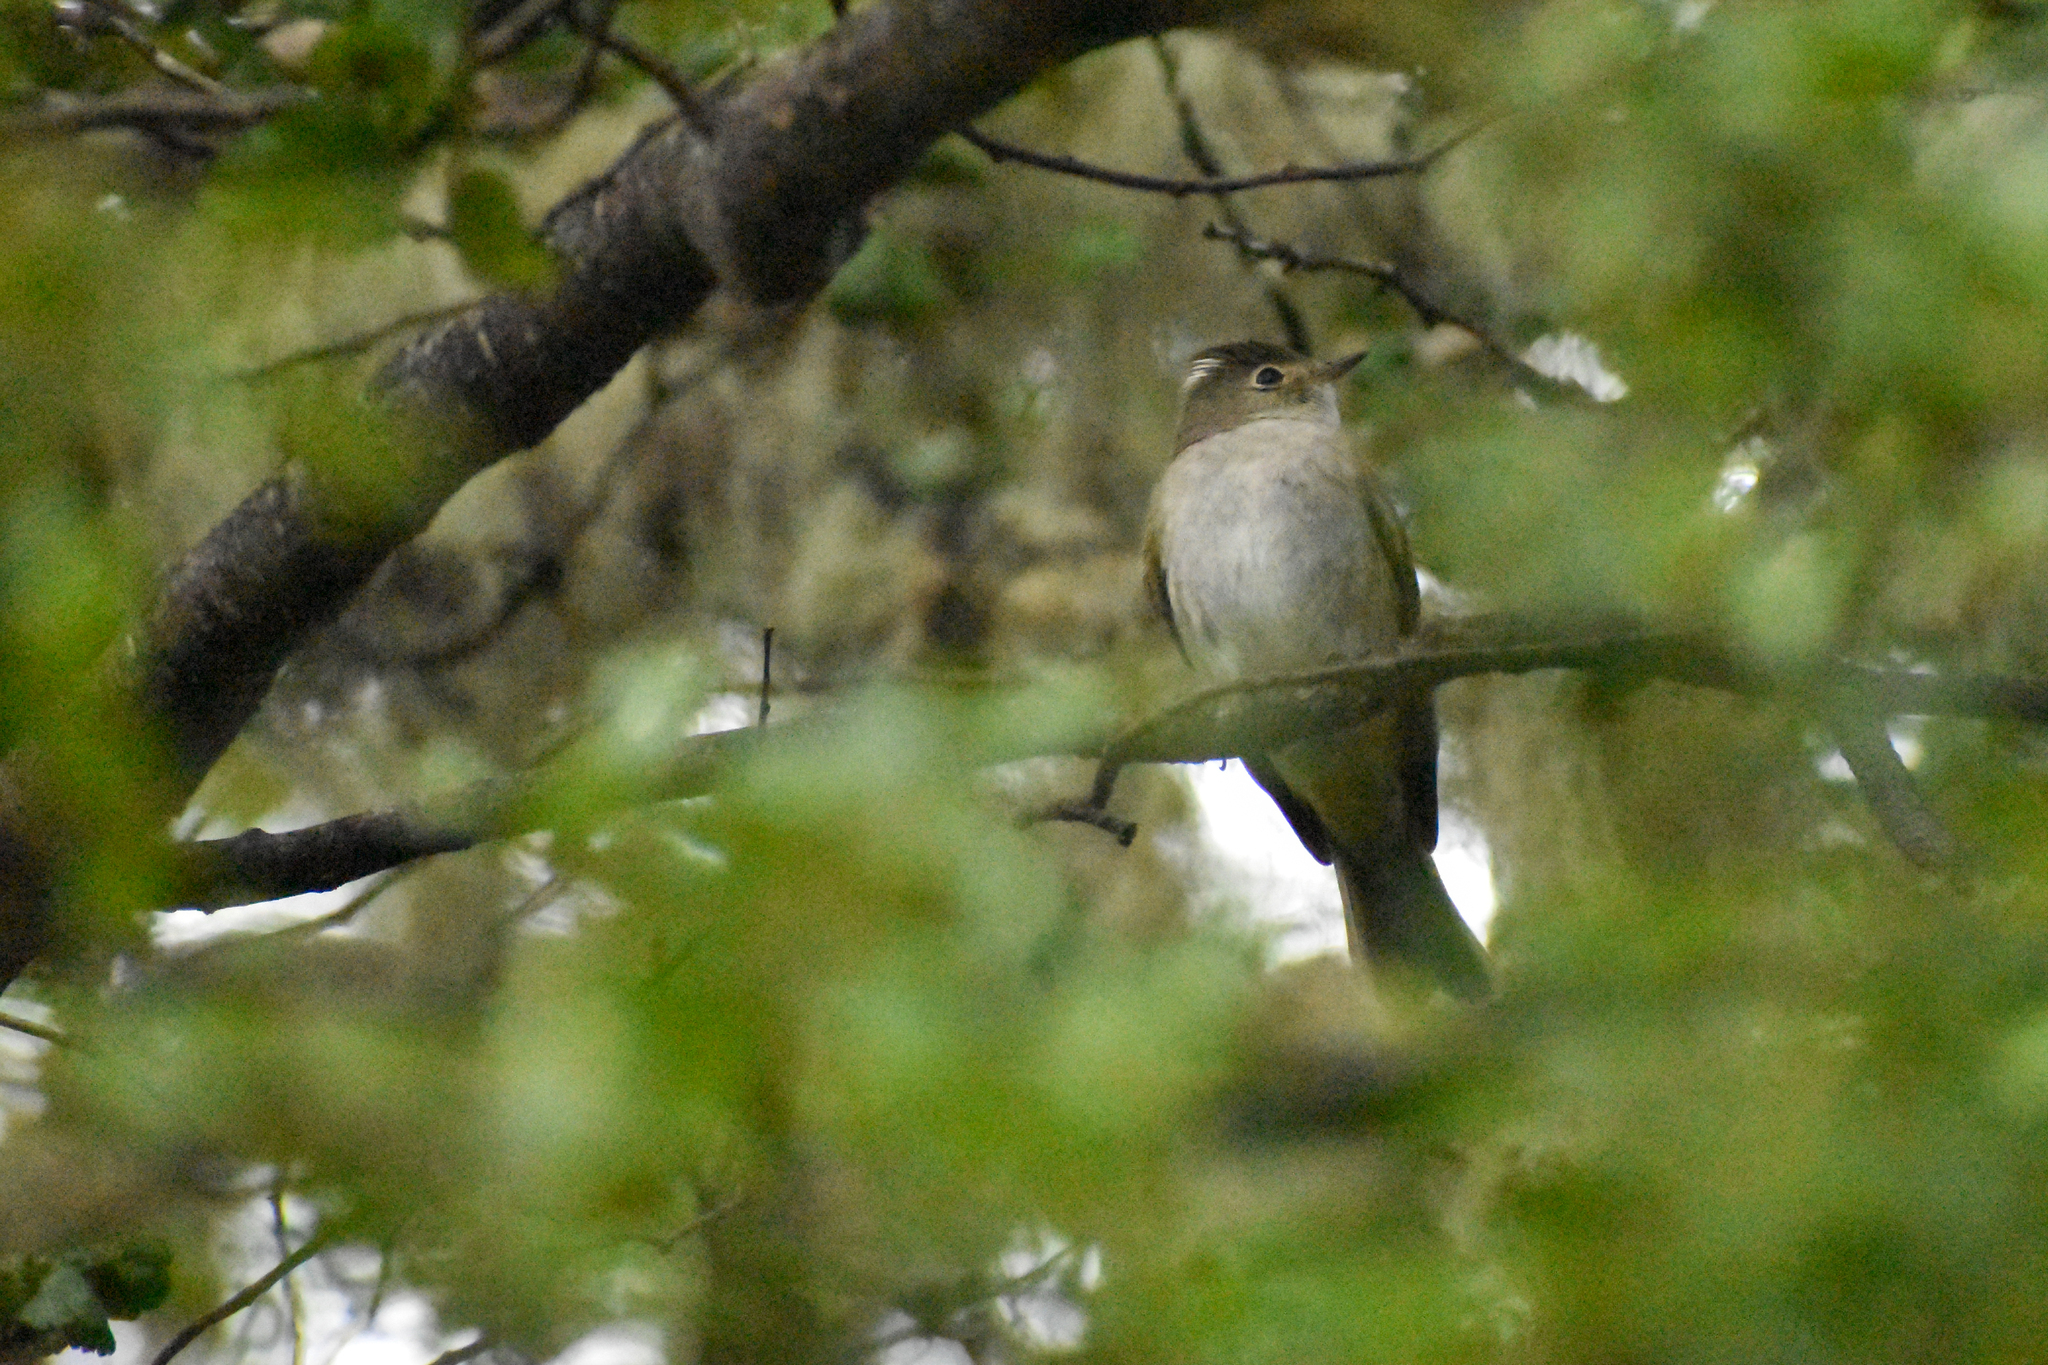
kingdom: Animalia
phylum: Chordata
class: Aves
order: Passeriformes
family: Tyrannidae
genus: Elaenia
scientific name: Elaenia albiceps
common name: White-crested elaenia
